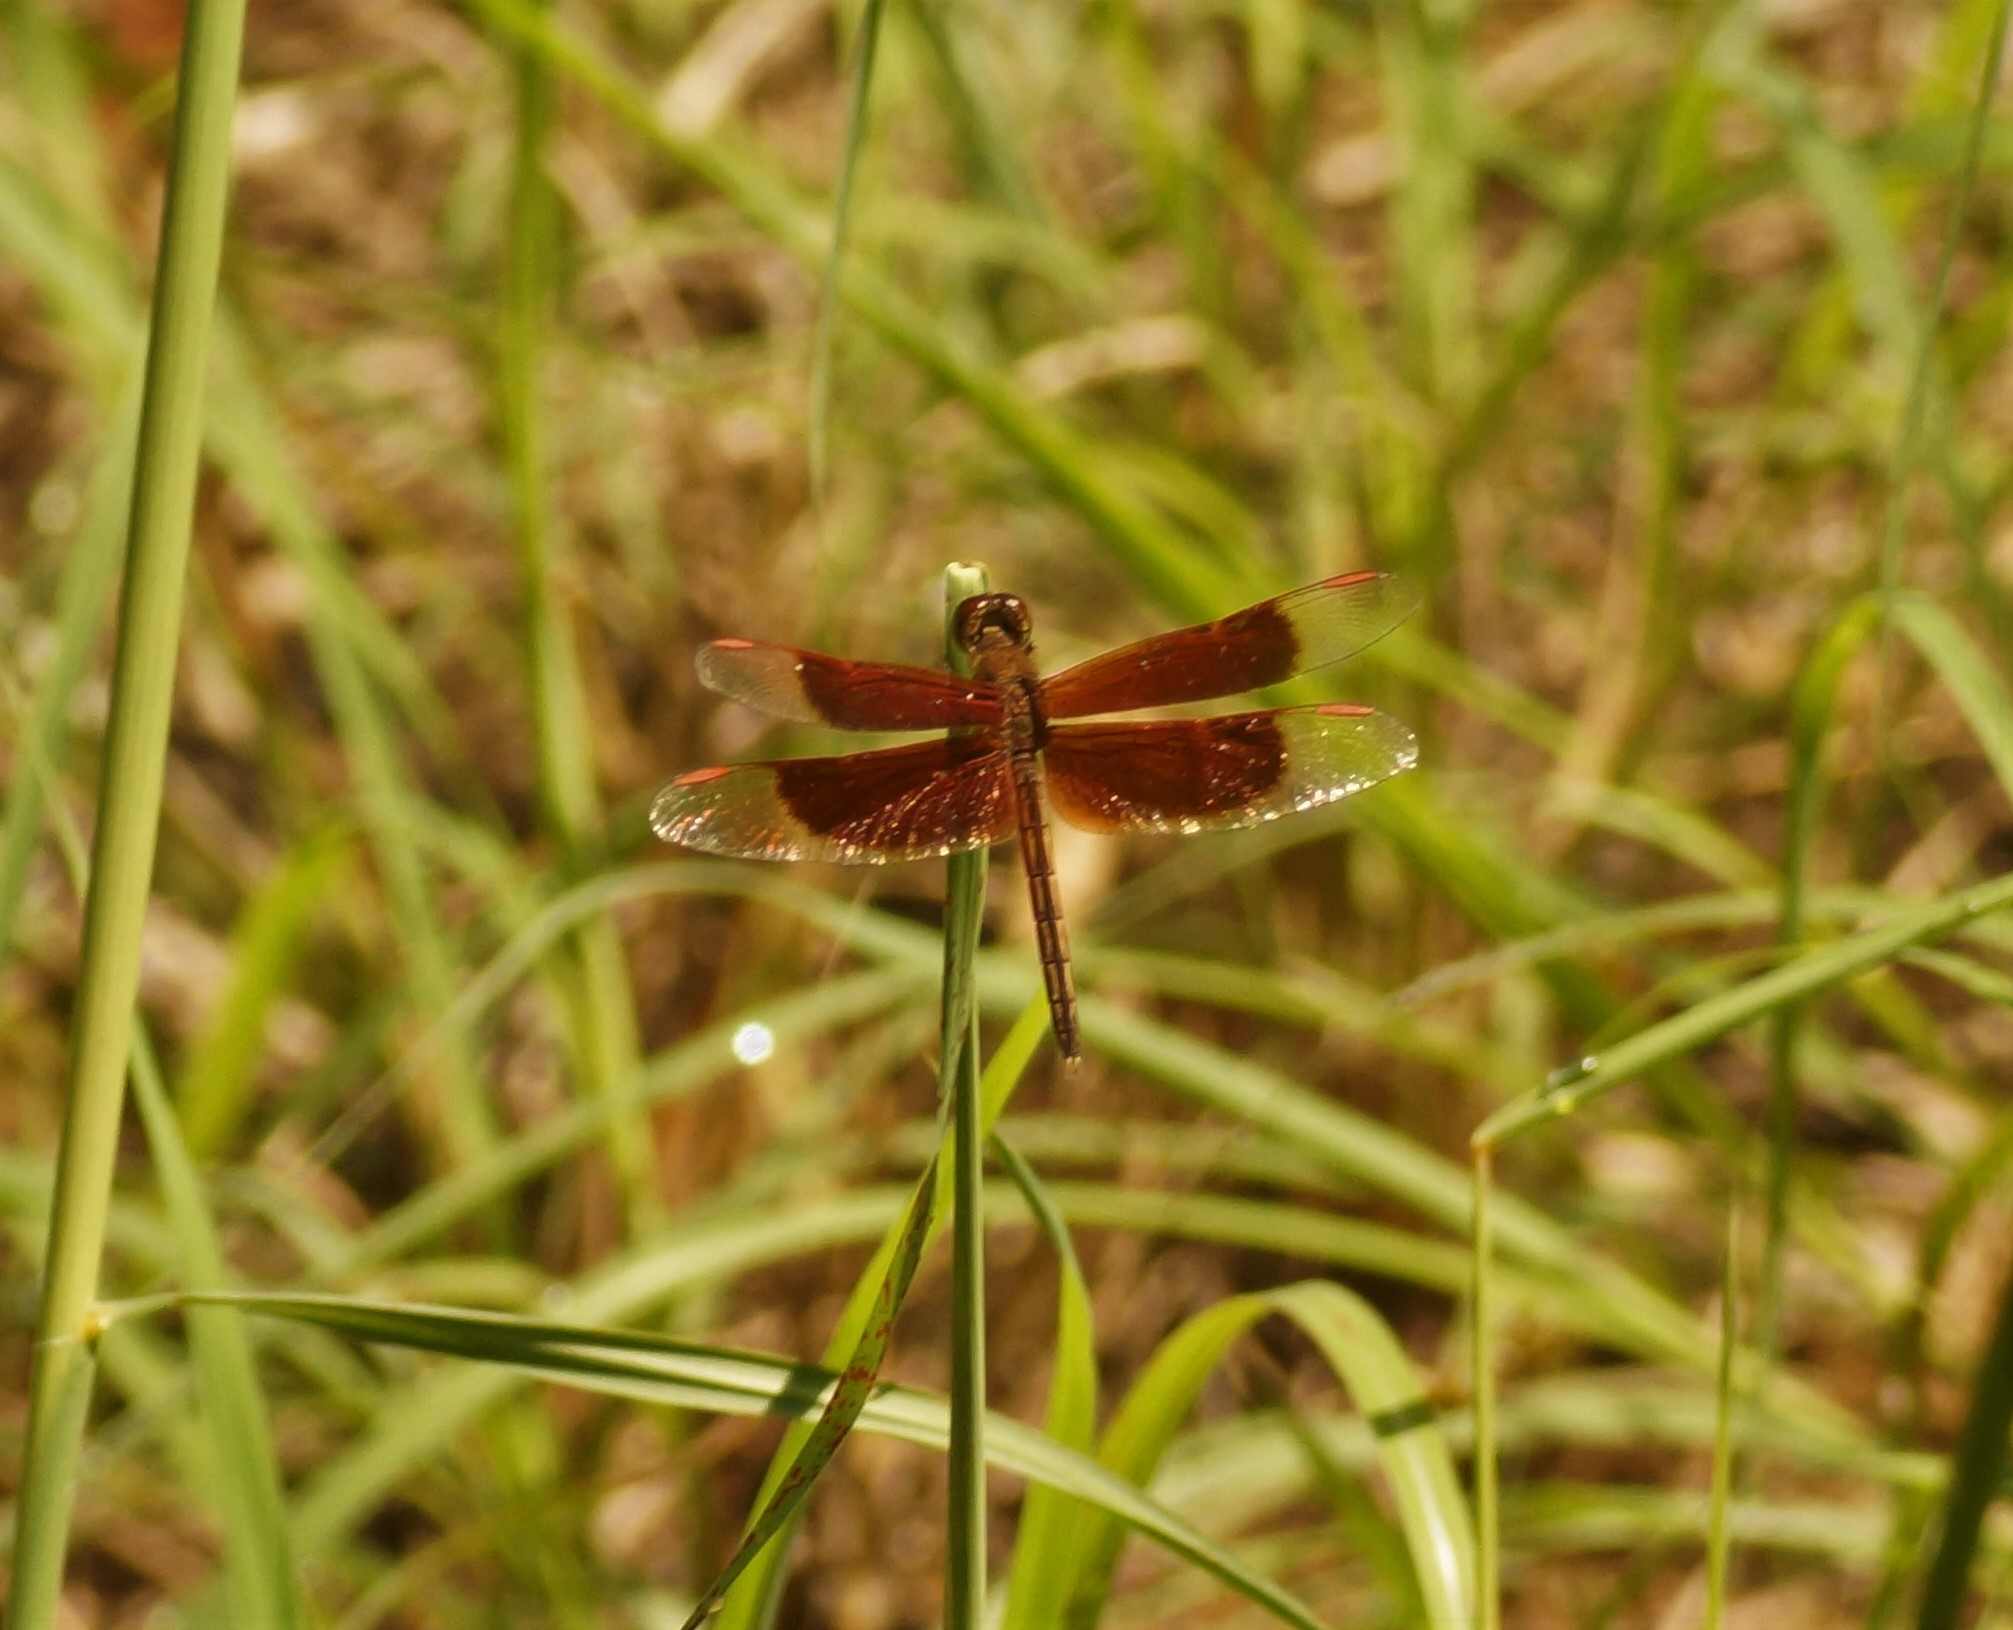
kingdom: Animalia
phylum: Arthropoda
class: Insecta
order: Odonata
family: Libellulidae
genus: Neurothemis
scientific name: Neurothemis stigmatizans
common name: Painted grasshawk
